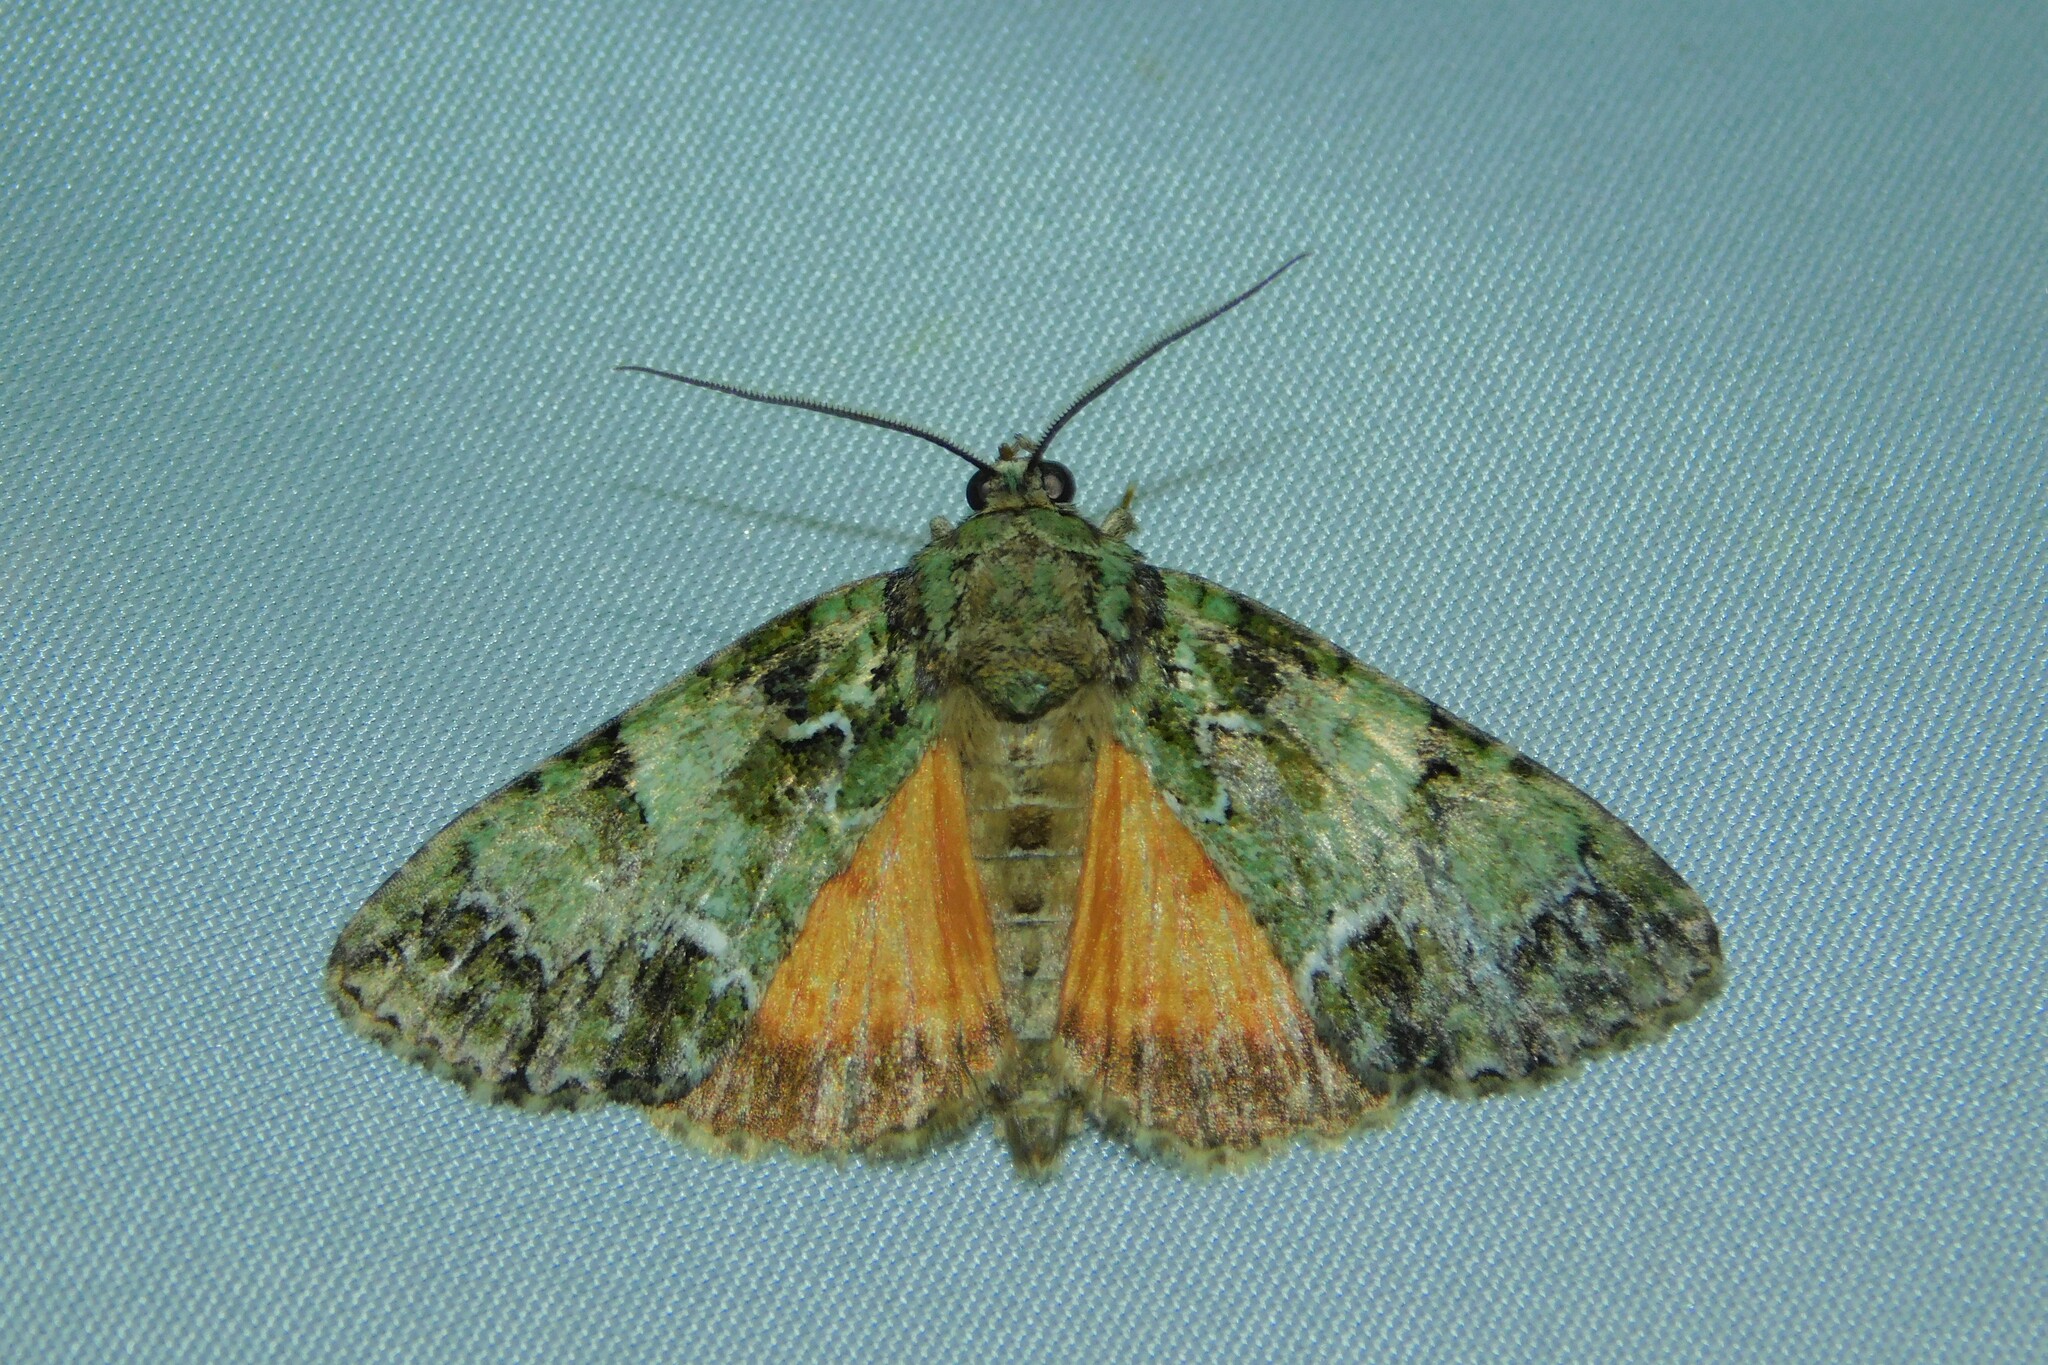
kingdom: Animalia
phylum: Arthropoda
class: Insecta
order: Lepidoptera
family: Noctuidae
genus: Polyphaenis
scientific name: Polyphaenis sericata
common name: Guernsey underwing
